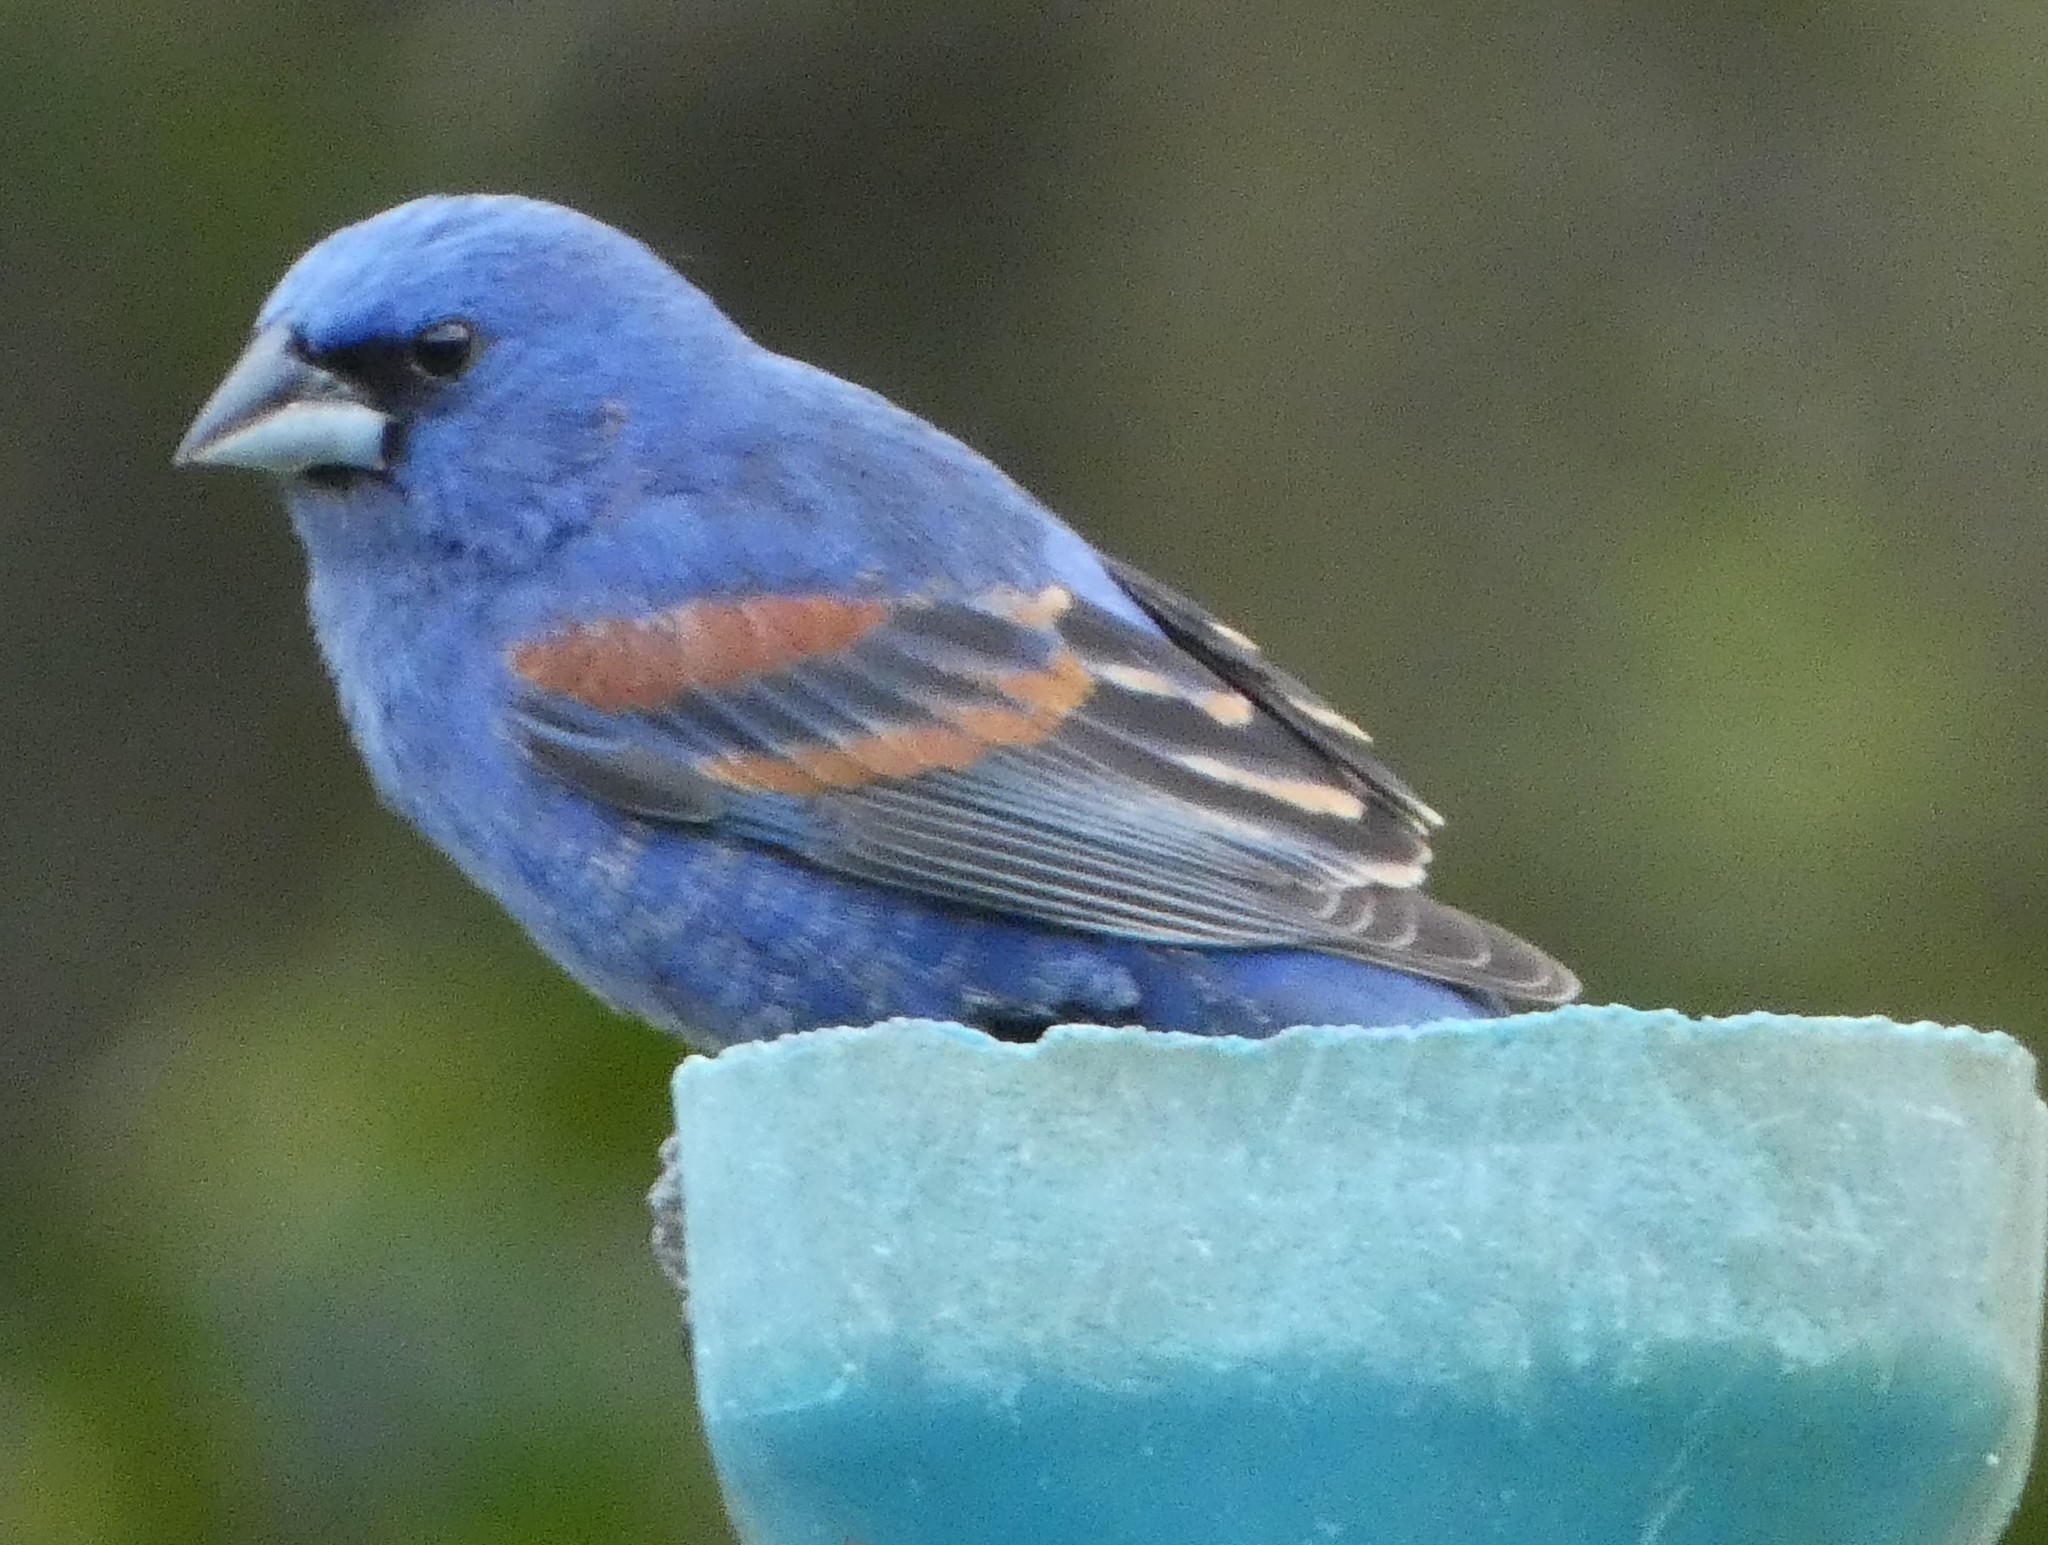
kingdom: Animalia
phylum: Chordata
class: Aves
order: Passeriformes
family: Cardinalidae
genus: Passerina
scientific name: Passerina caerulea
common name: Blue grosbeak
